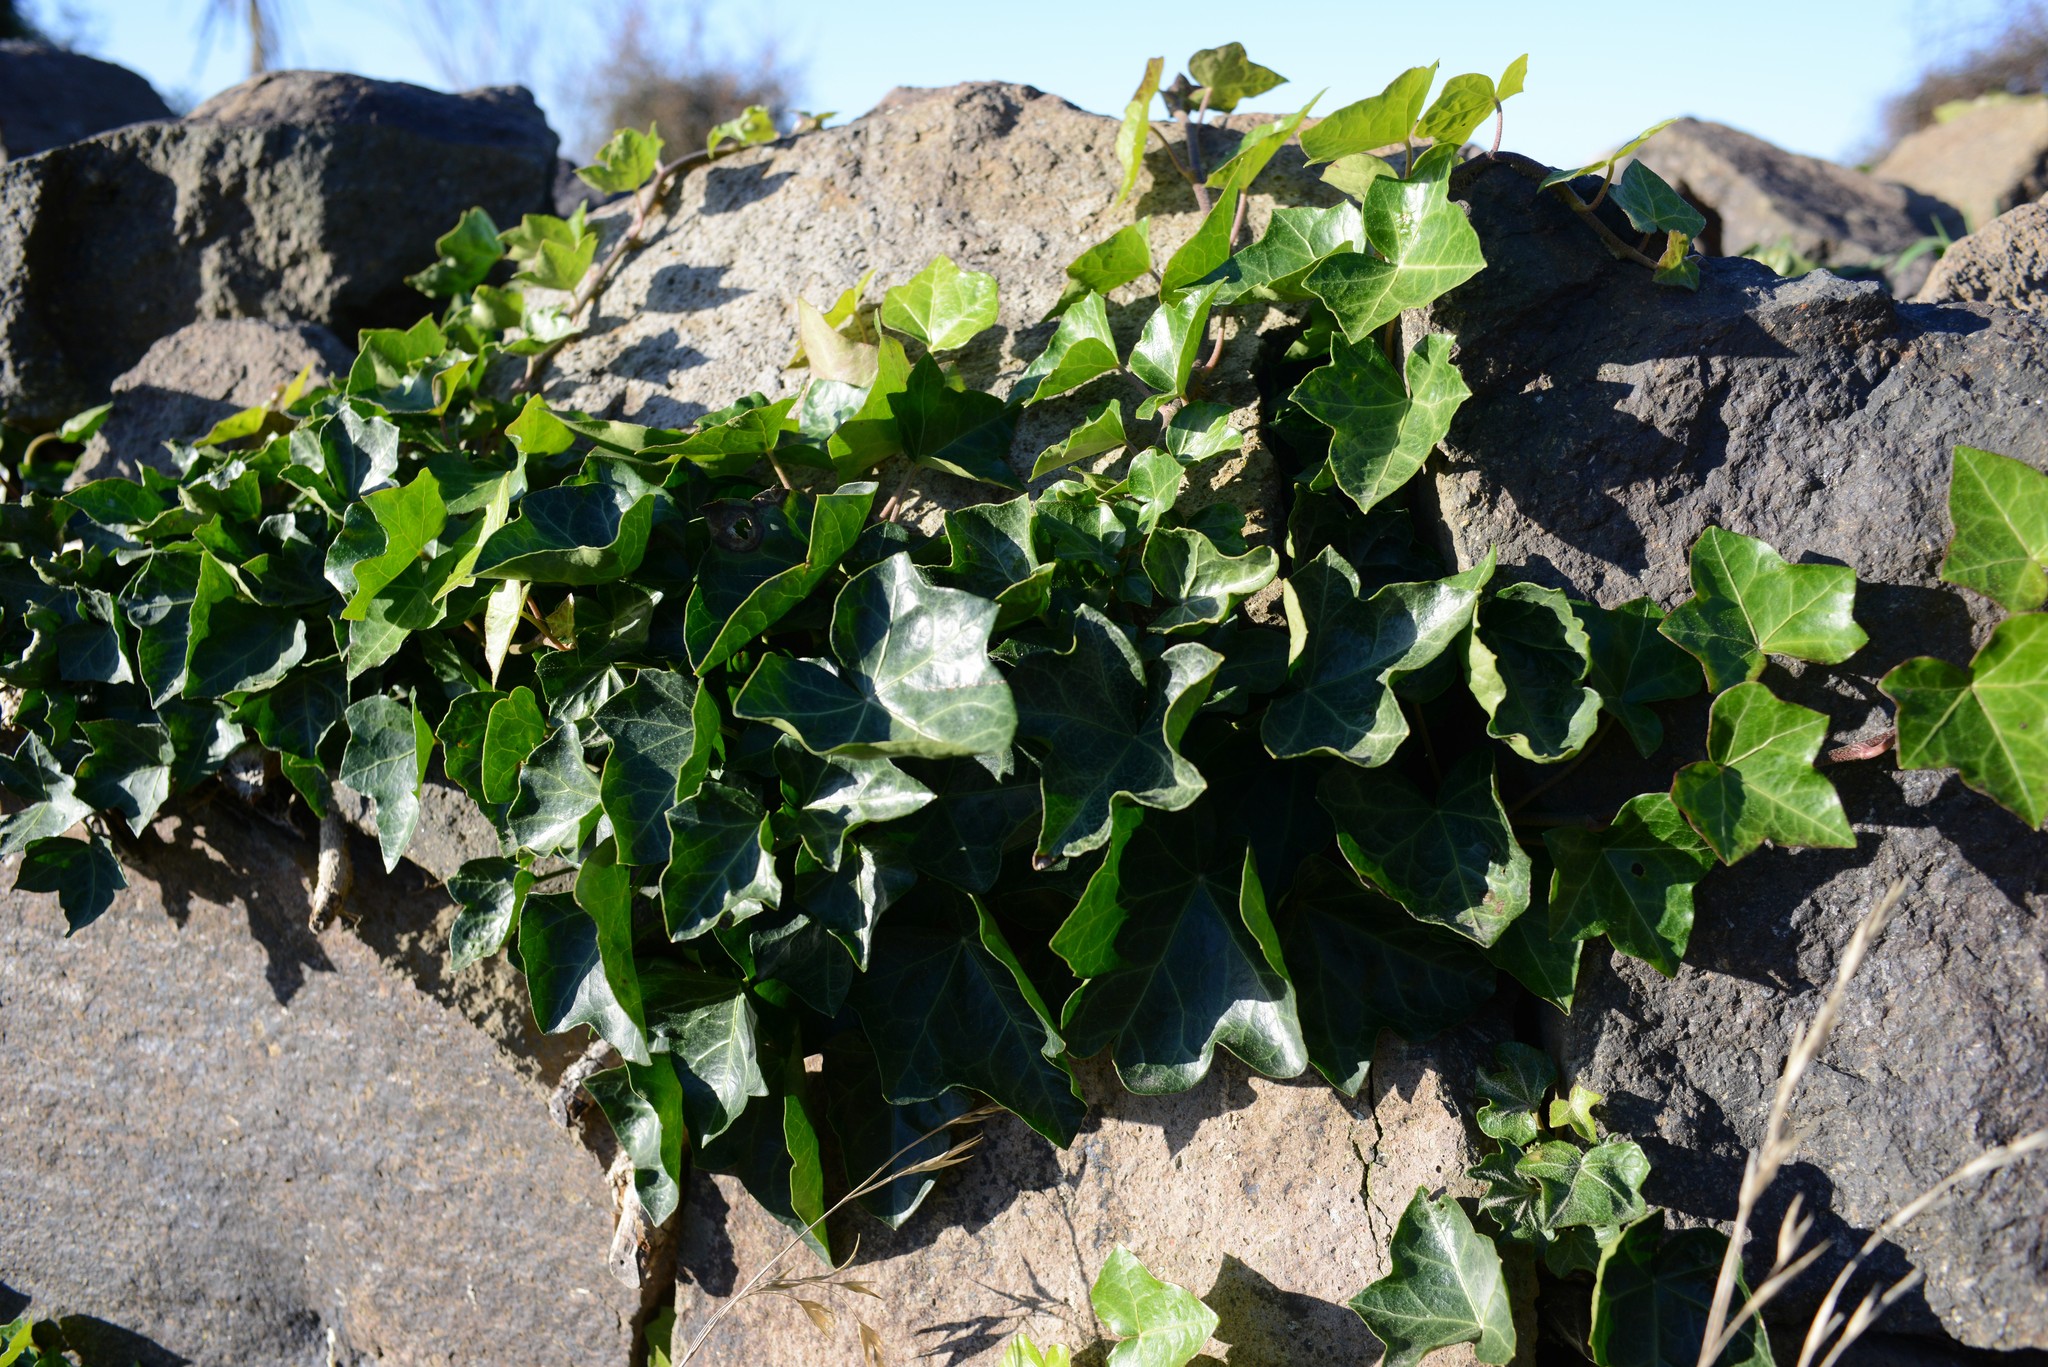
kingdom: Plantae
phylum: Tracheophyta
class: Magnoliopsida
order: Apiales
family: Araliaceae
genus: Hedera
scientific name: Hedera helix
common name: Ivy
